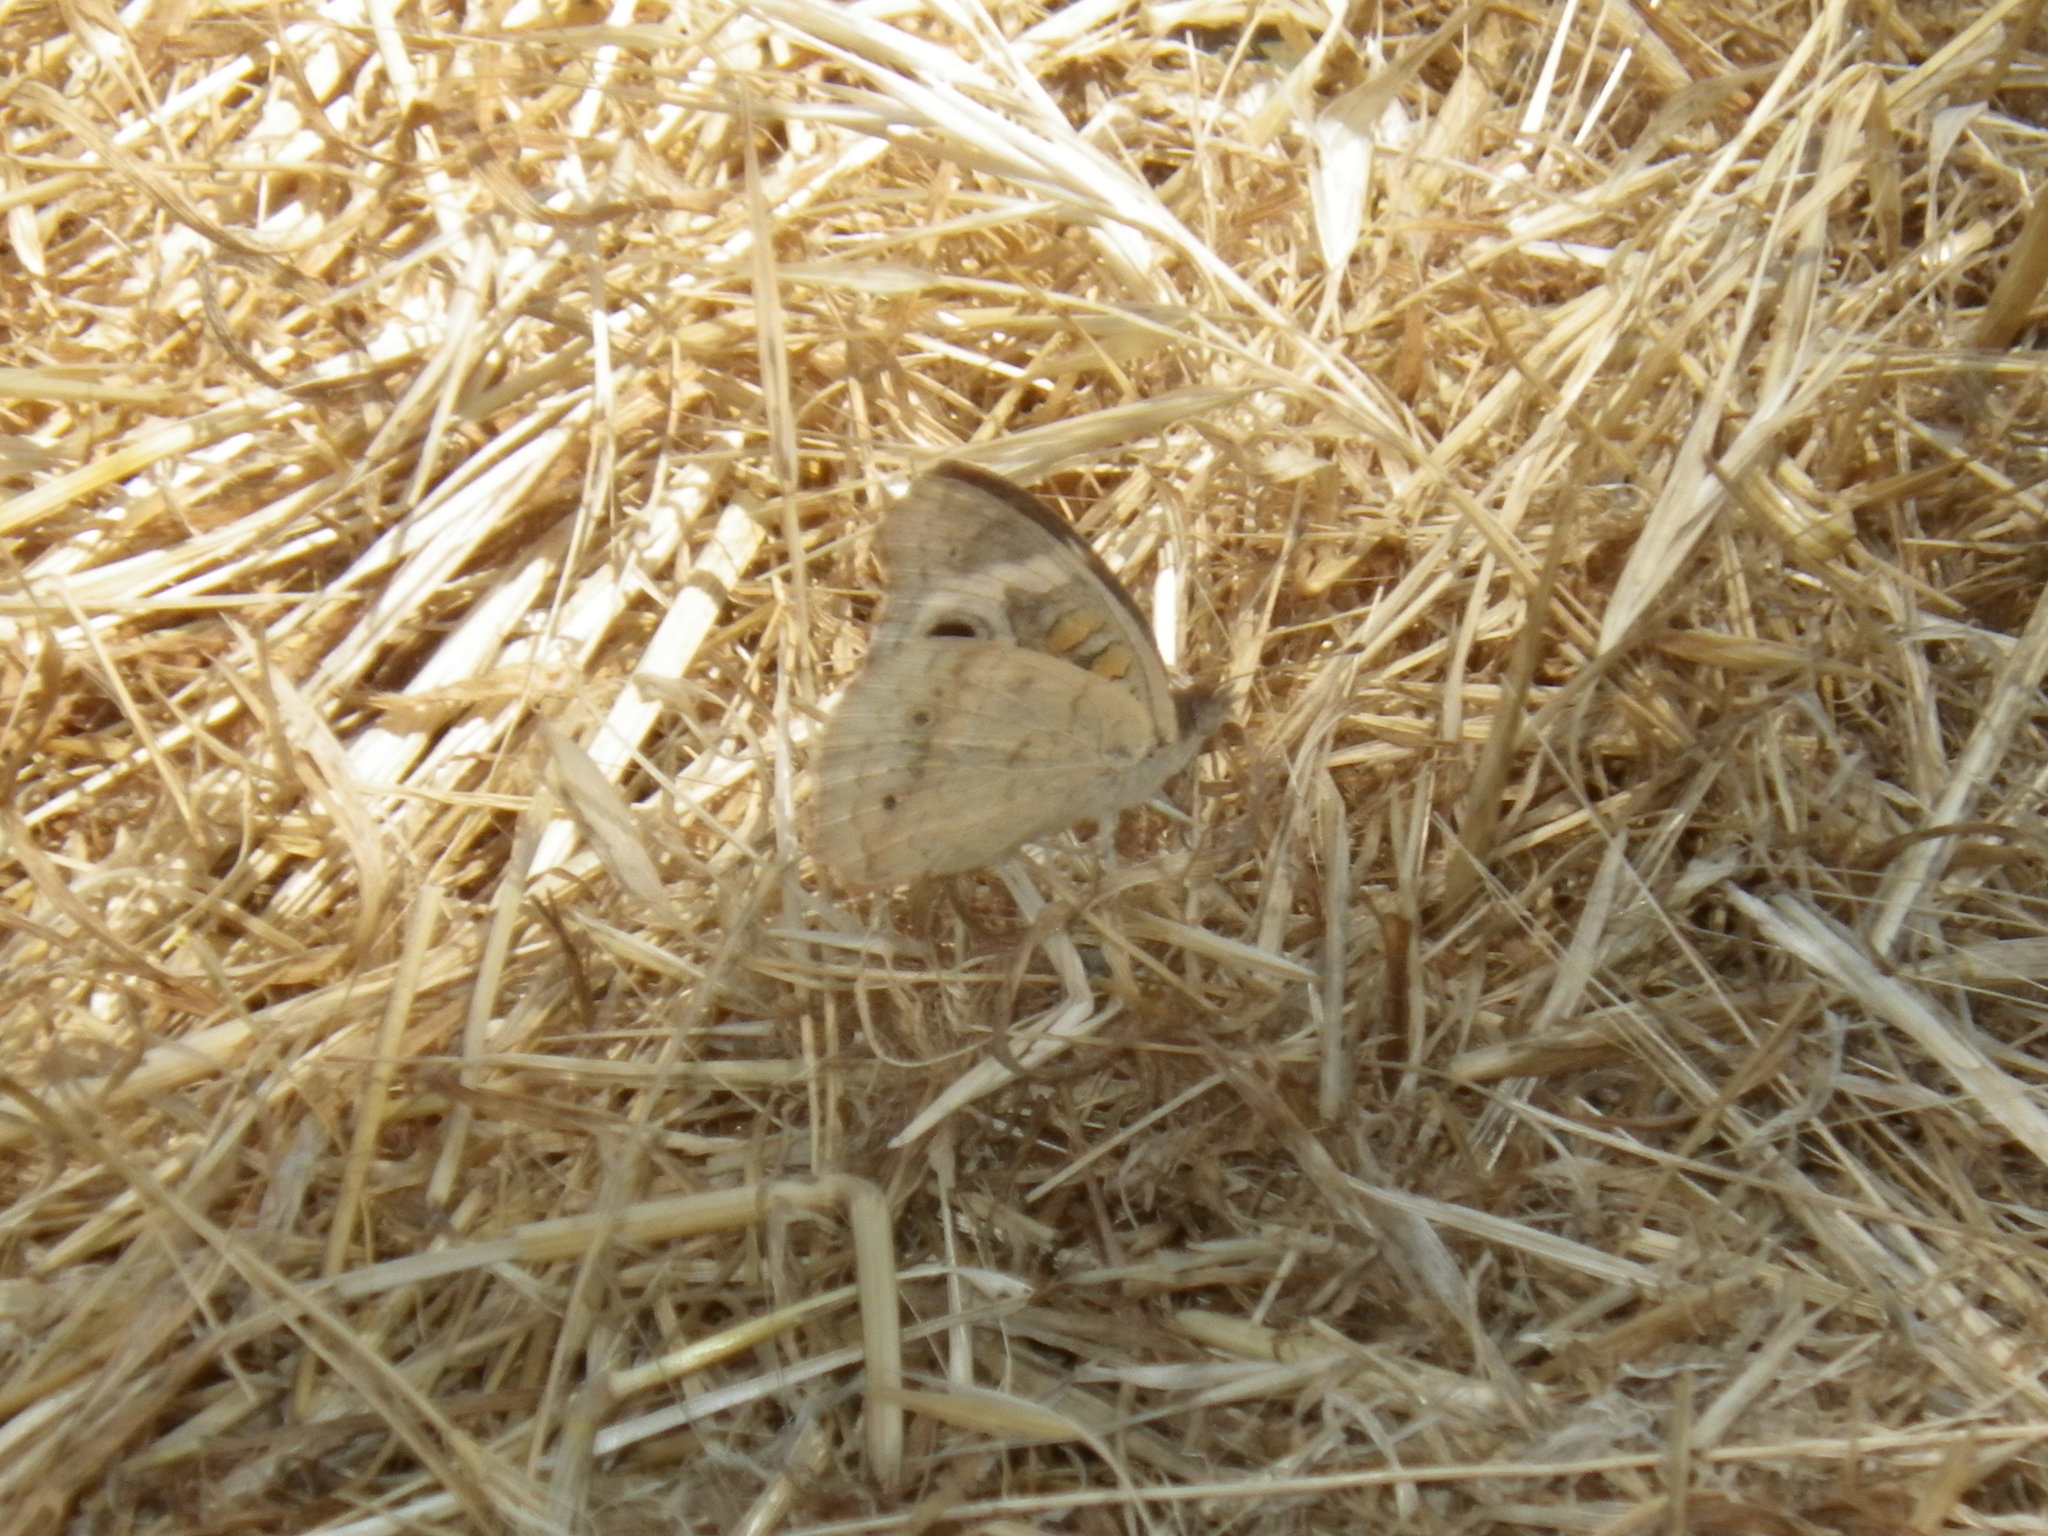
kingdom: Animalia
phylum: Arthropoda
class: Insecta
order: Lepidoptera
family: Nymphalidae
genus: Junonia
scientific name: Junonia grisea
